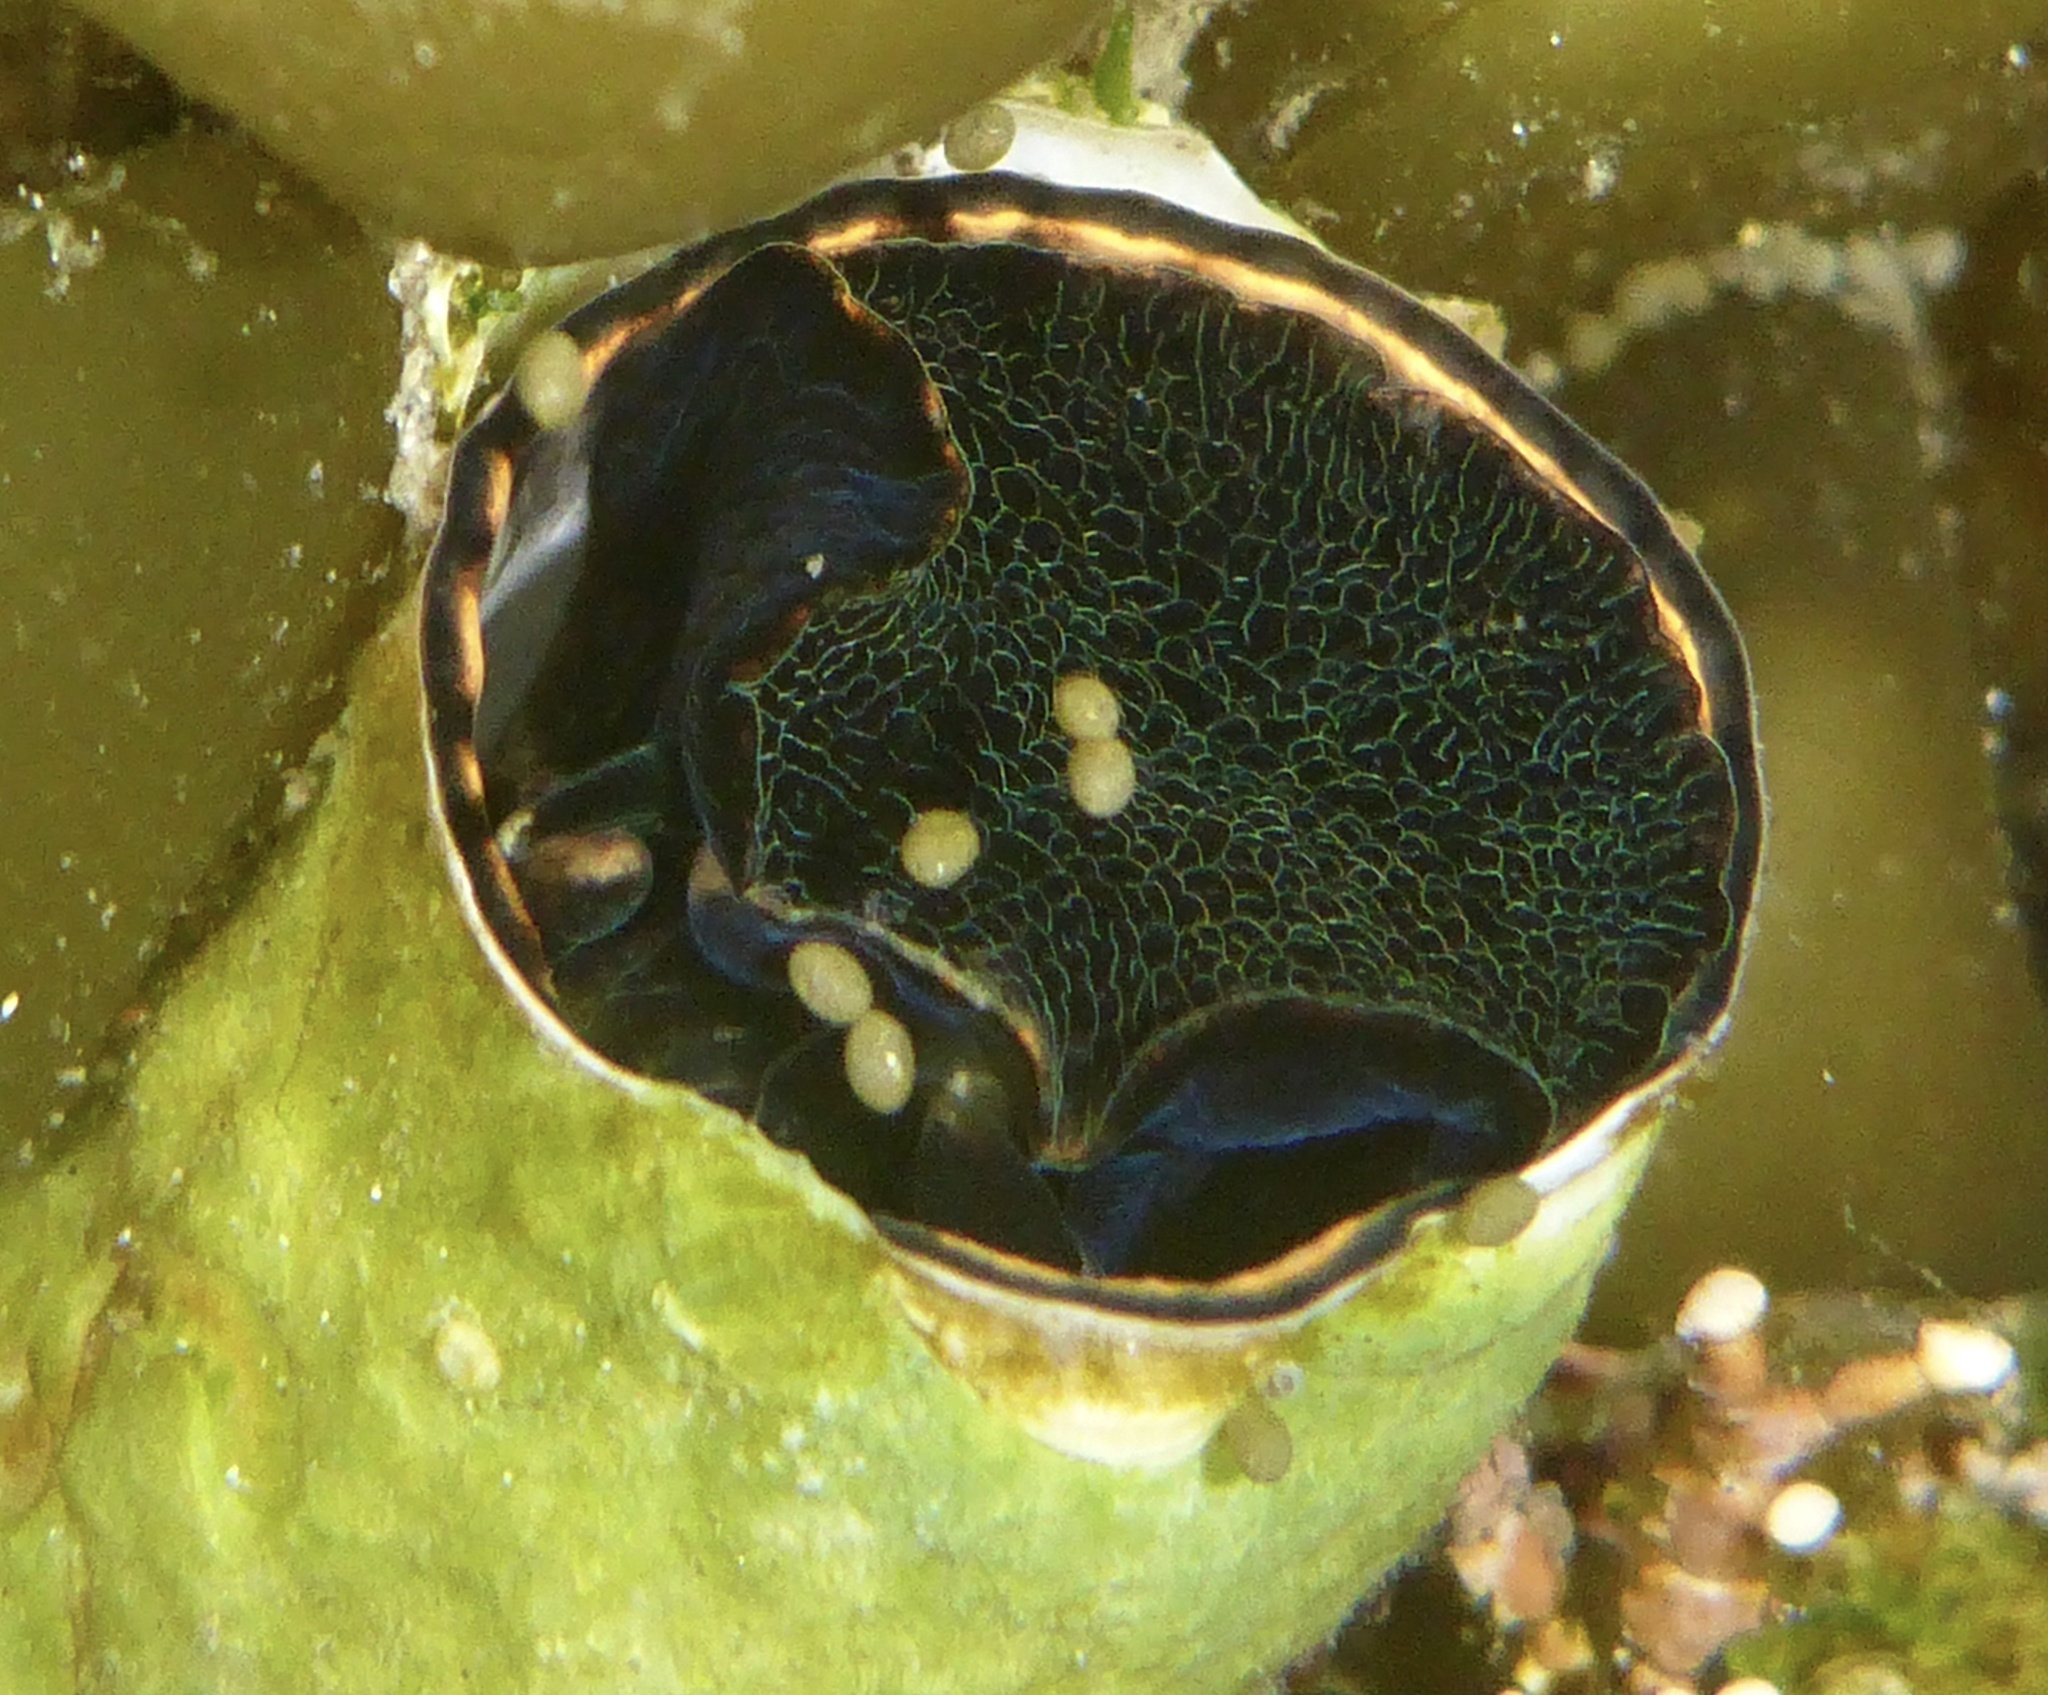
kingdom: Animalia
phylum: Mollusca
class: Gastropoda
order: Littorinimorpha
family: Vermetidae
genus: Thylacodes
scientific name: Thylacodes squamigerus
